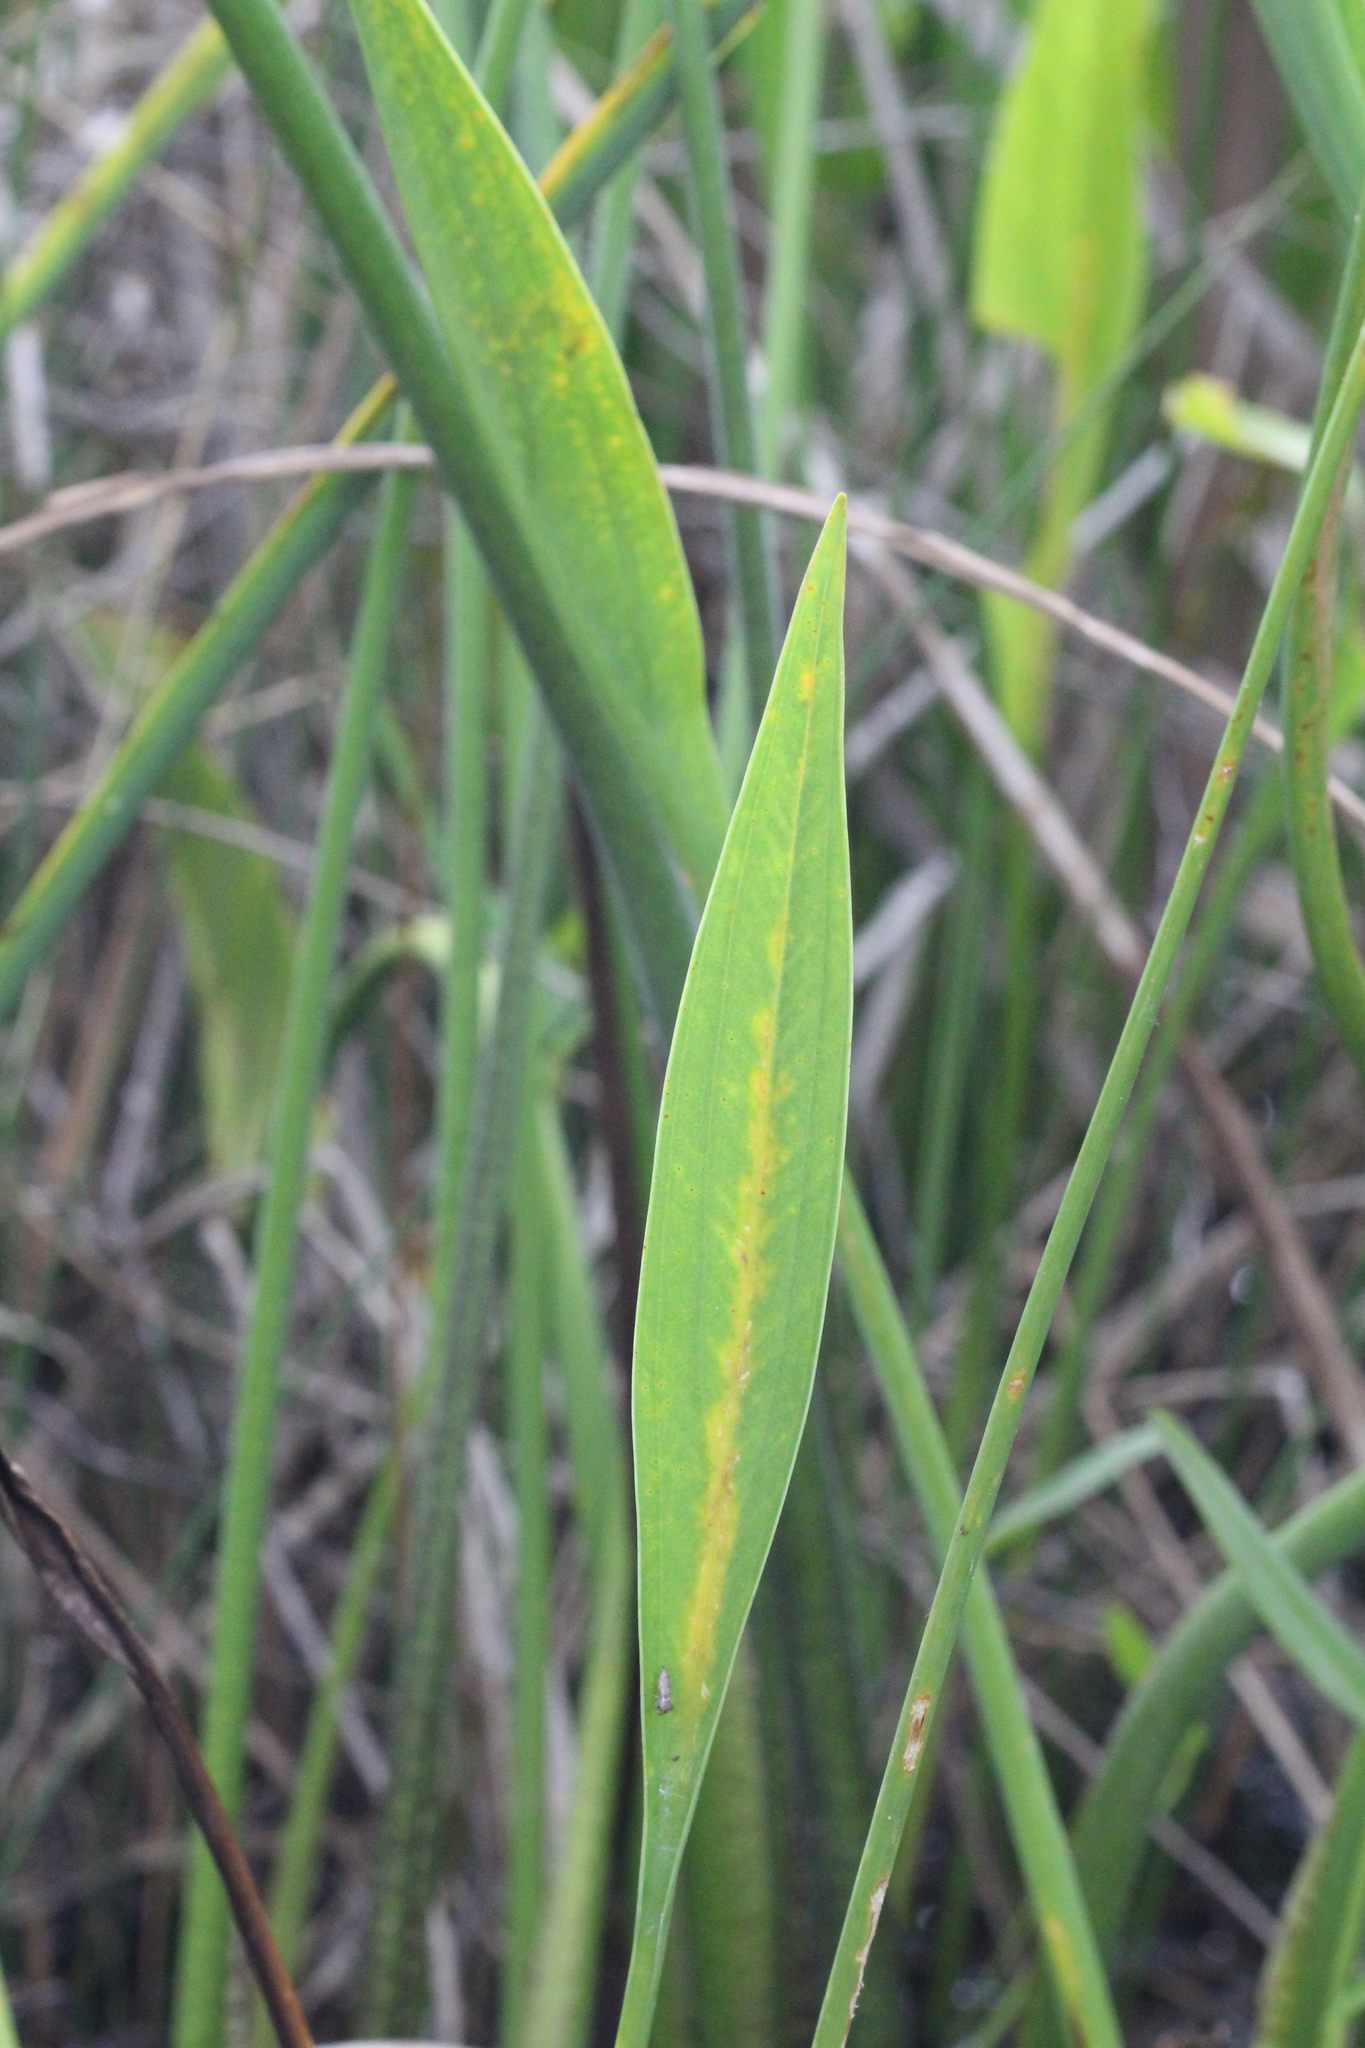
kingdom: Plantae
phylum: Tracheophyta
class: Liliopsida
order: Alismatales
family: Alismataceae
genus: Sagittaria
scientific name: Sagittaria lancifolia
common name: Lance-leaf arrowhead
